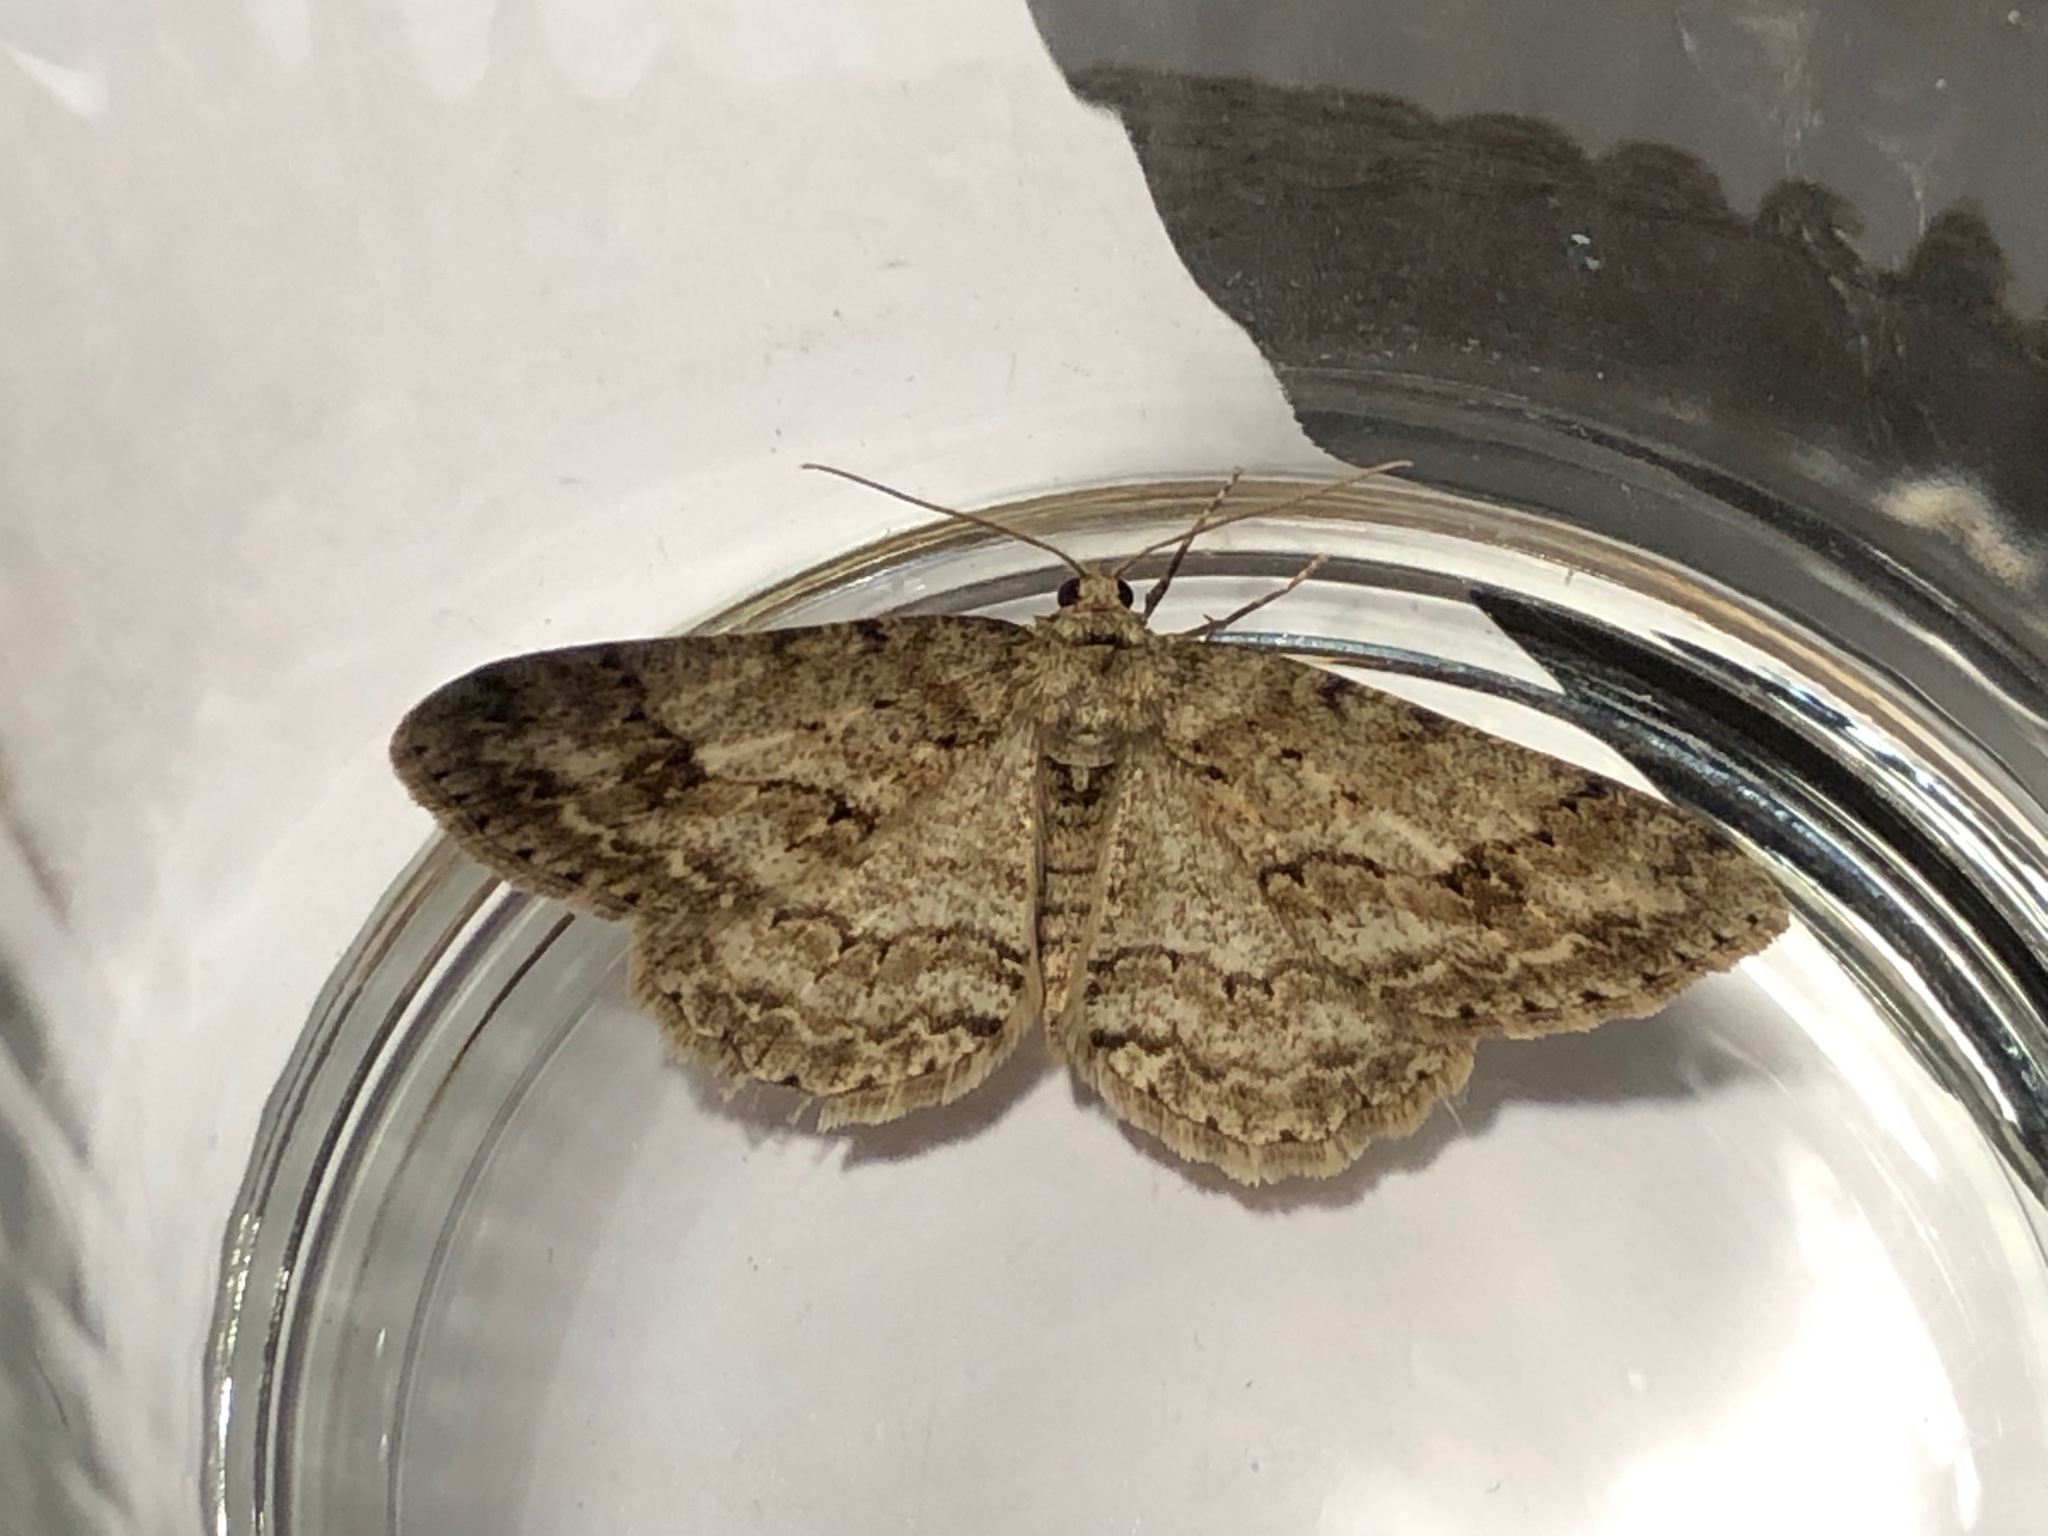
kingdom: Animalia
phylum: Arthropoda
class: Insecta
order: Lepidoptera
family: Geometridae
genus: Ectropis
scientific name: Ectropis crepuscularia
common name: Engrailed
